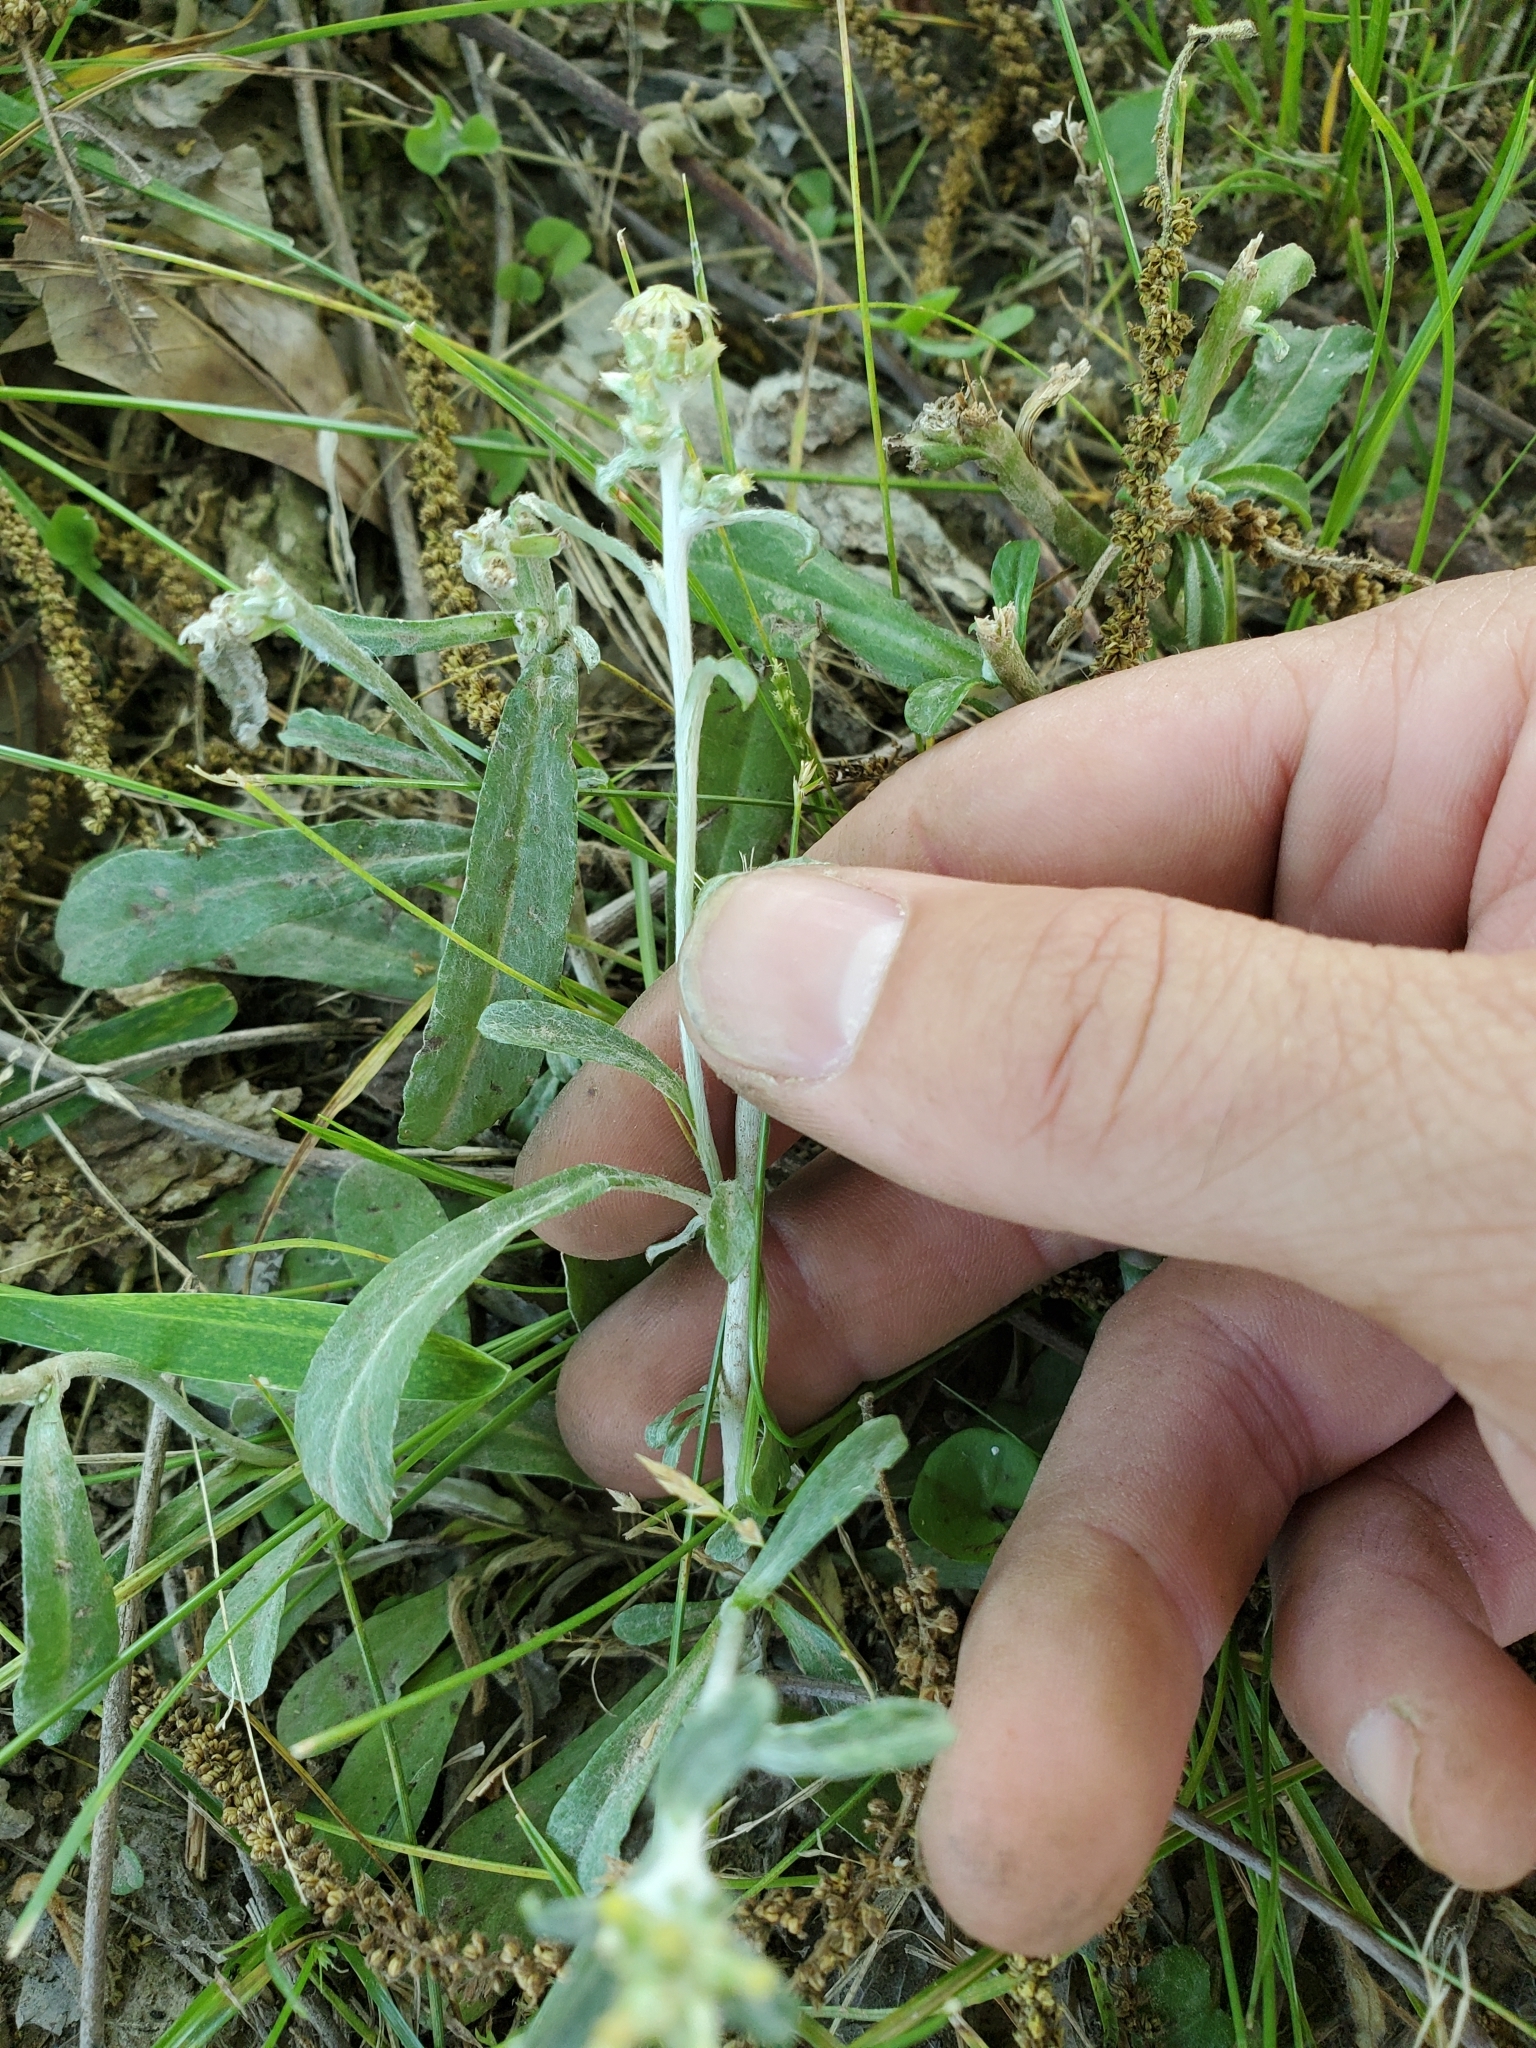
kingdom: Plantae
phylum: Tracheophyta
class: Magnoliopsida
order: Asterales
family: Asteraceae
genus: Gamochaeta
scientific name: Gamochaeta purpurea
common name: Purple cudweed
